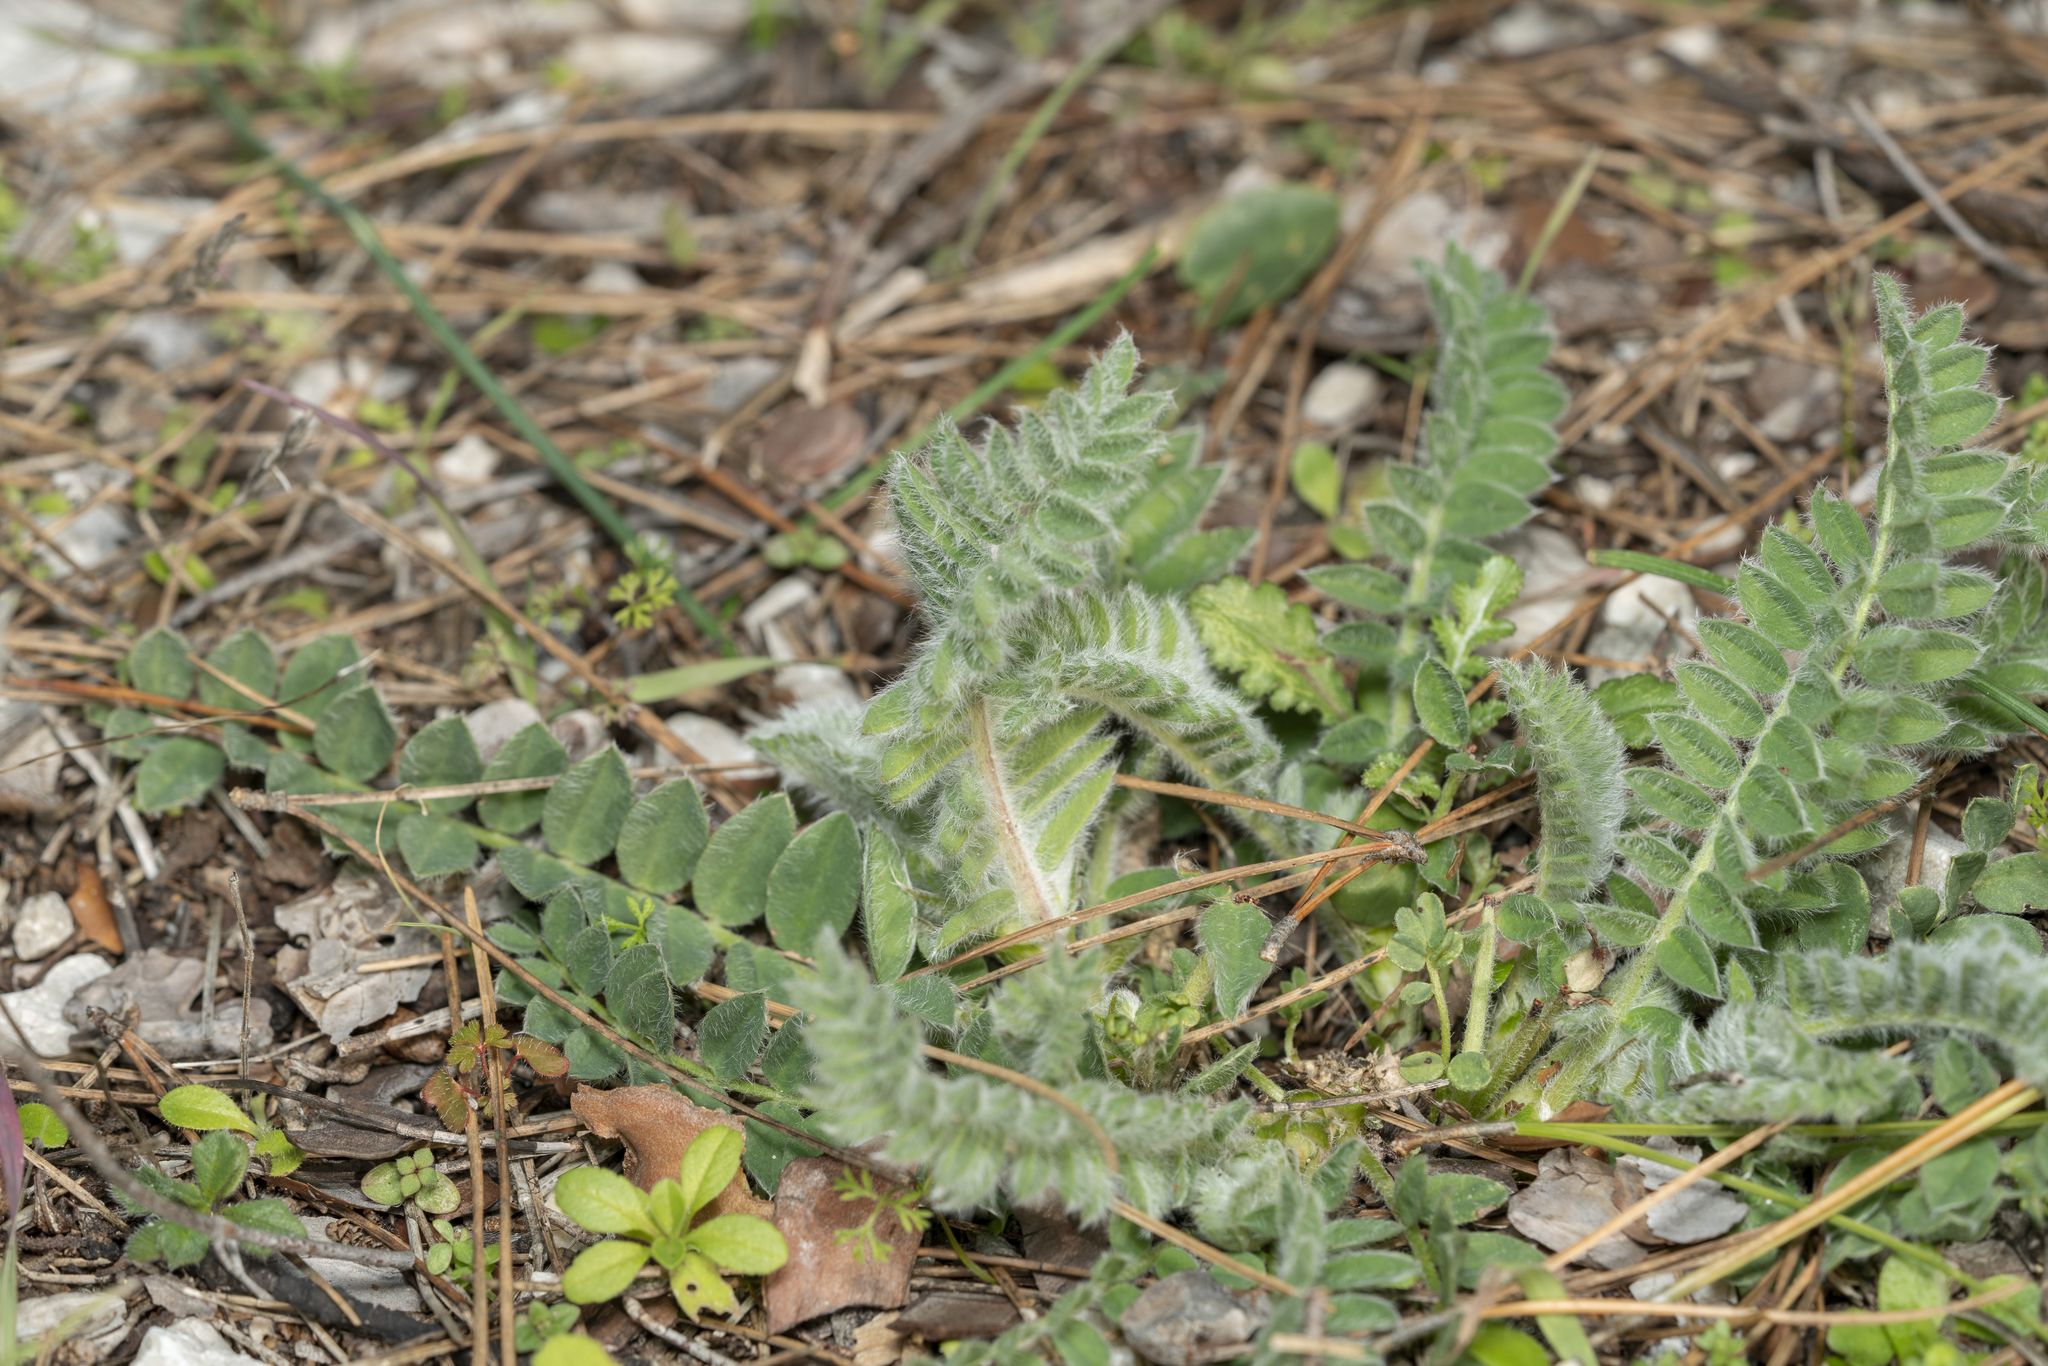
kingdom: Plantae
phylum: Tracheophyta
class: Magnoliopsida
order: Fabales
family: Fabaceae
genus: Astragalus
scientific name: Astragalus austroaegaeus
